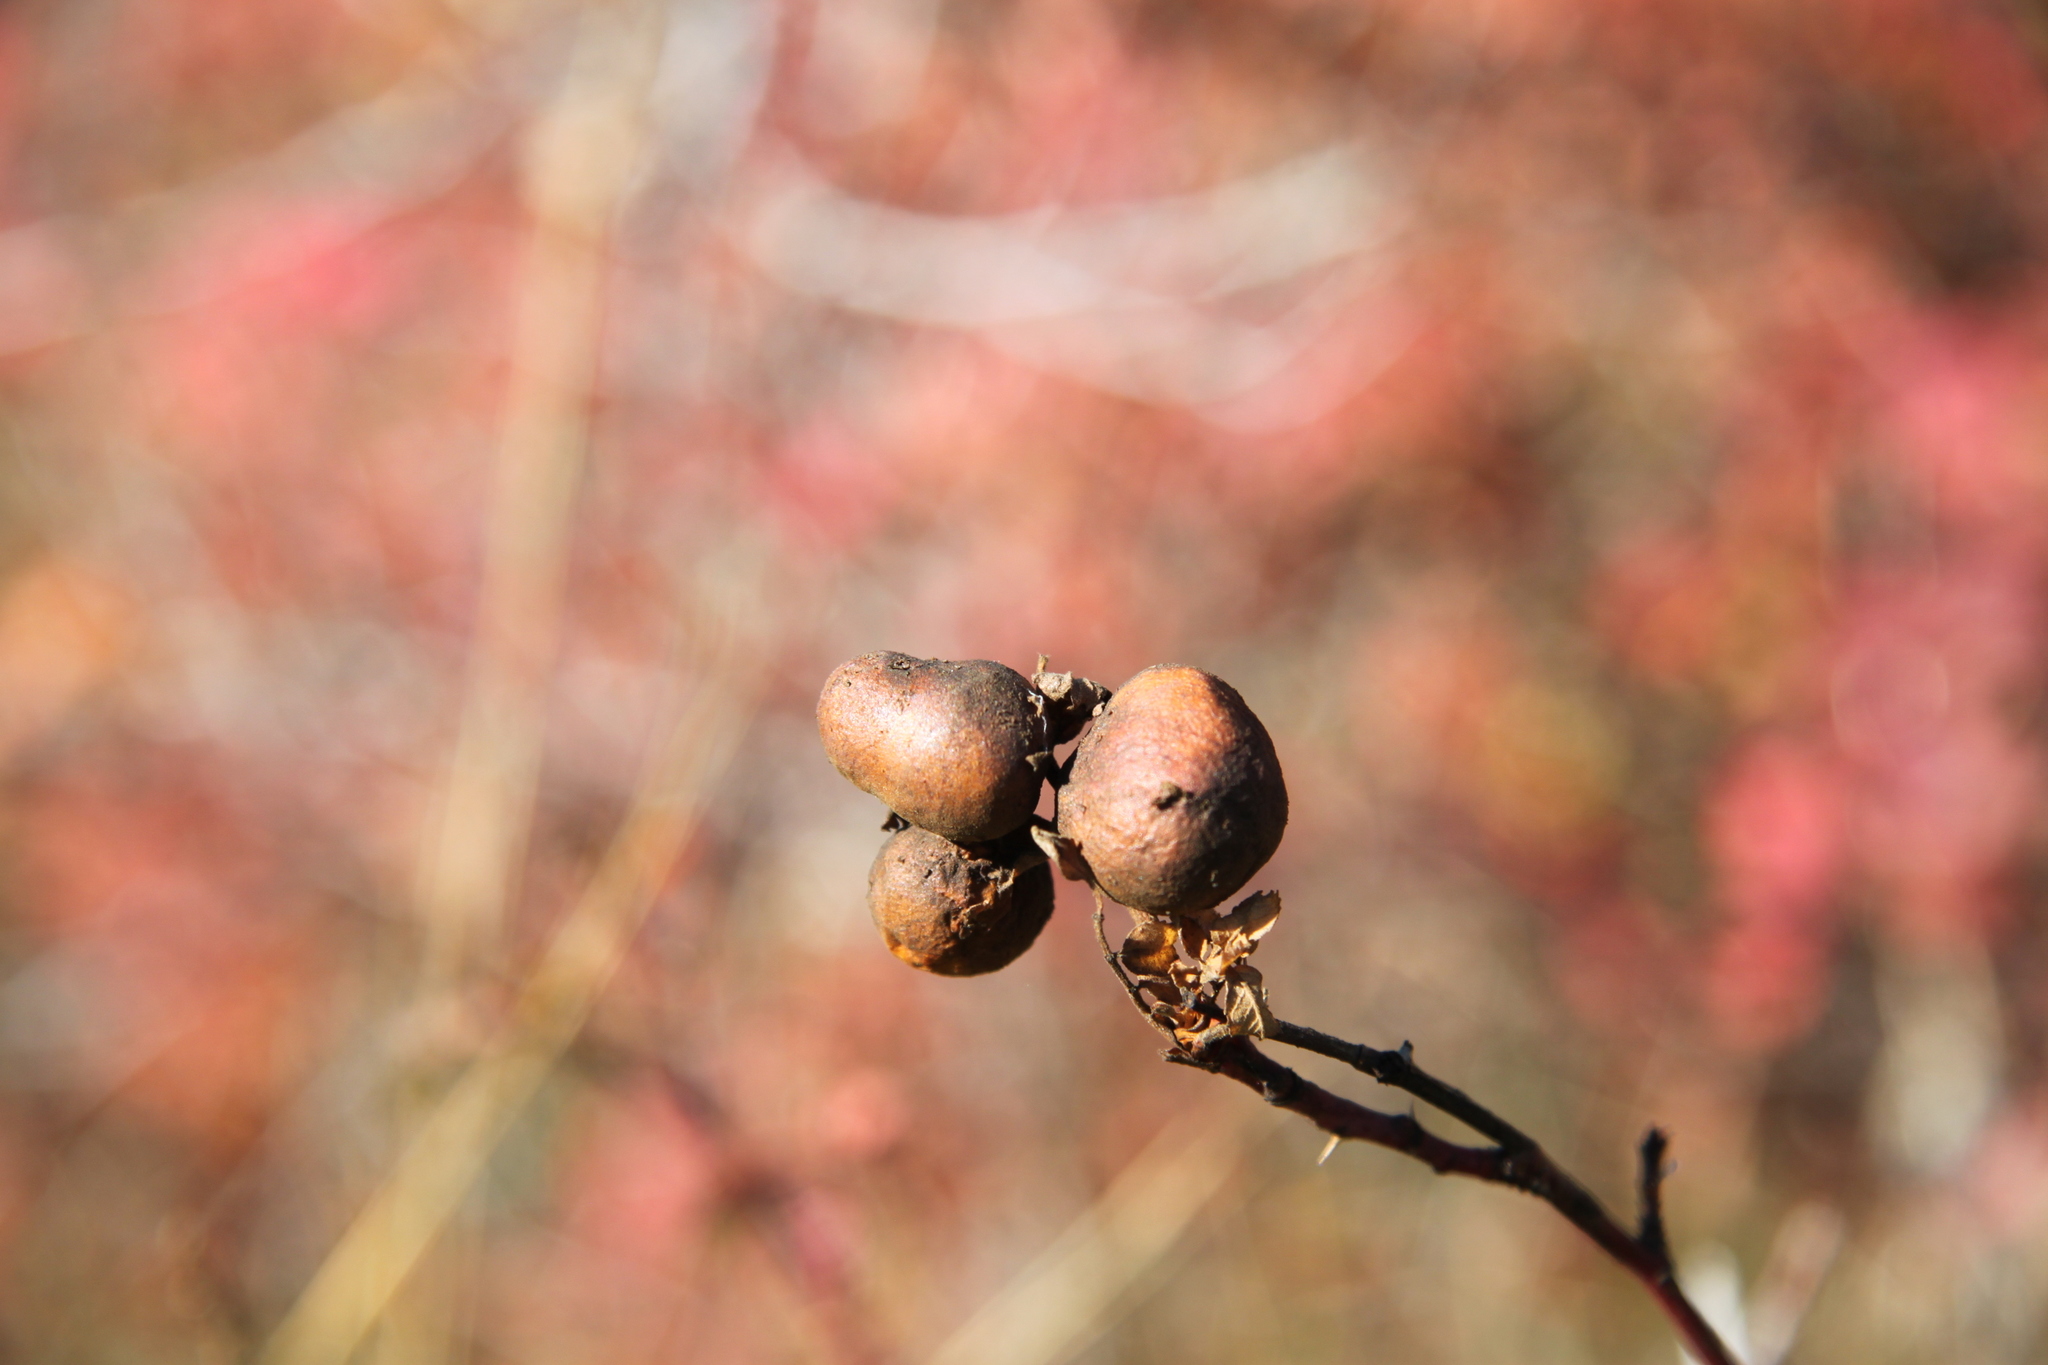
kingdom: Animalia
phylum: Arthropoda
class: Insecta
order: Hymenoptera
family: Cynipidae
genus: Diplolepis
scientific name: Diplolepis variabilis
